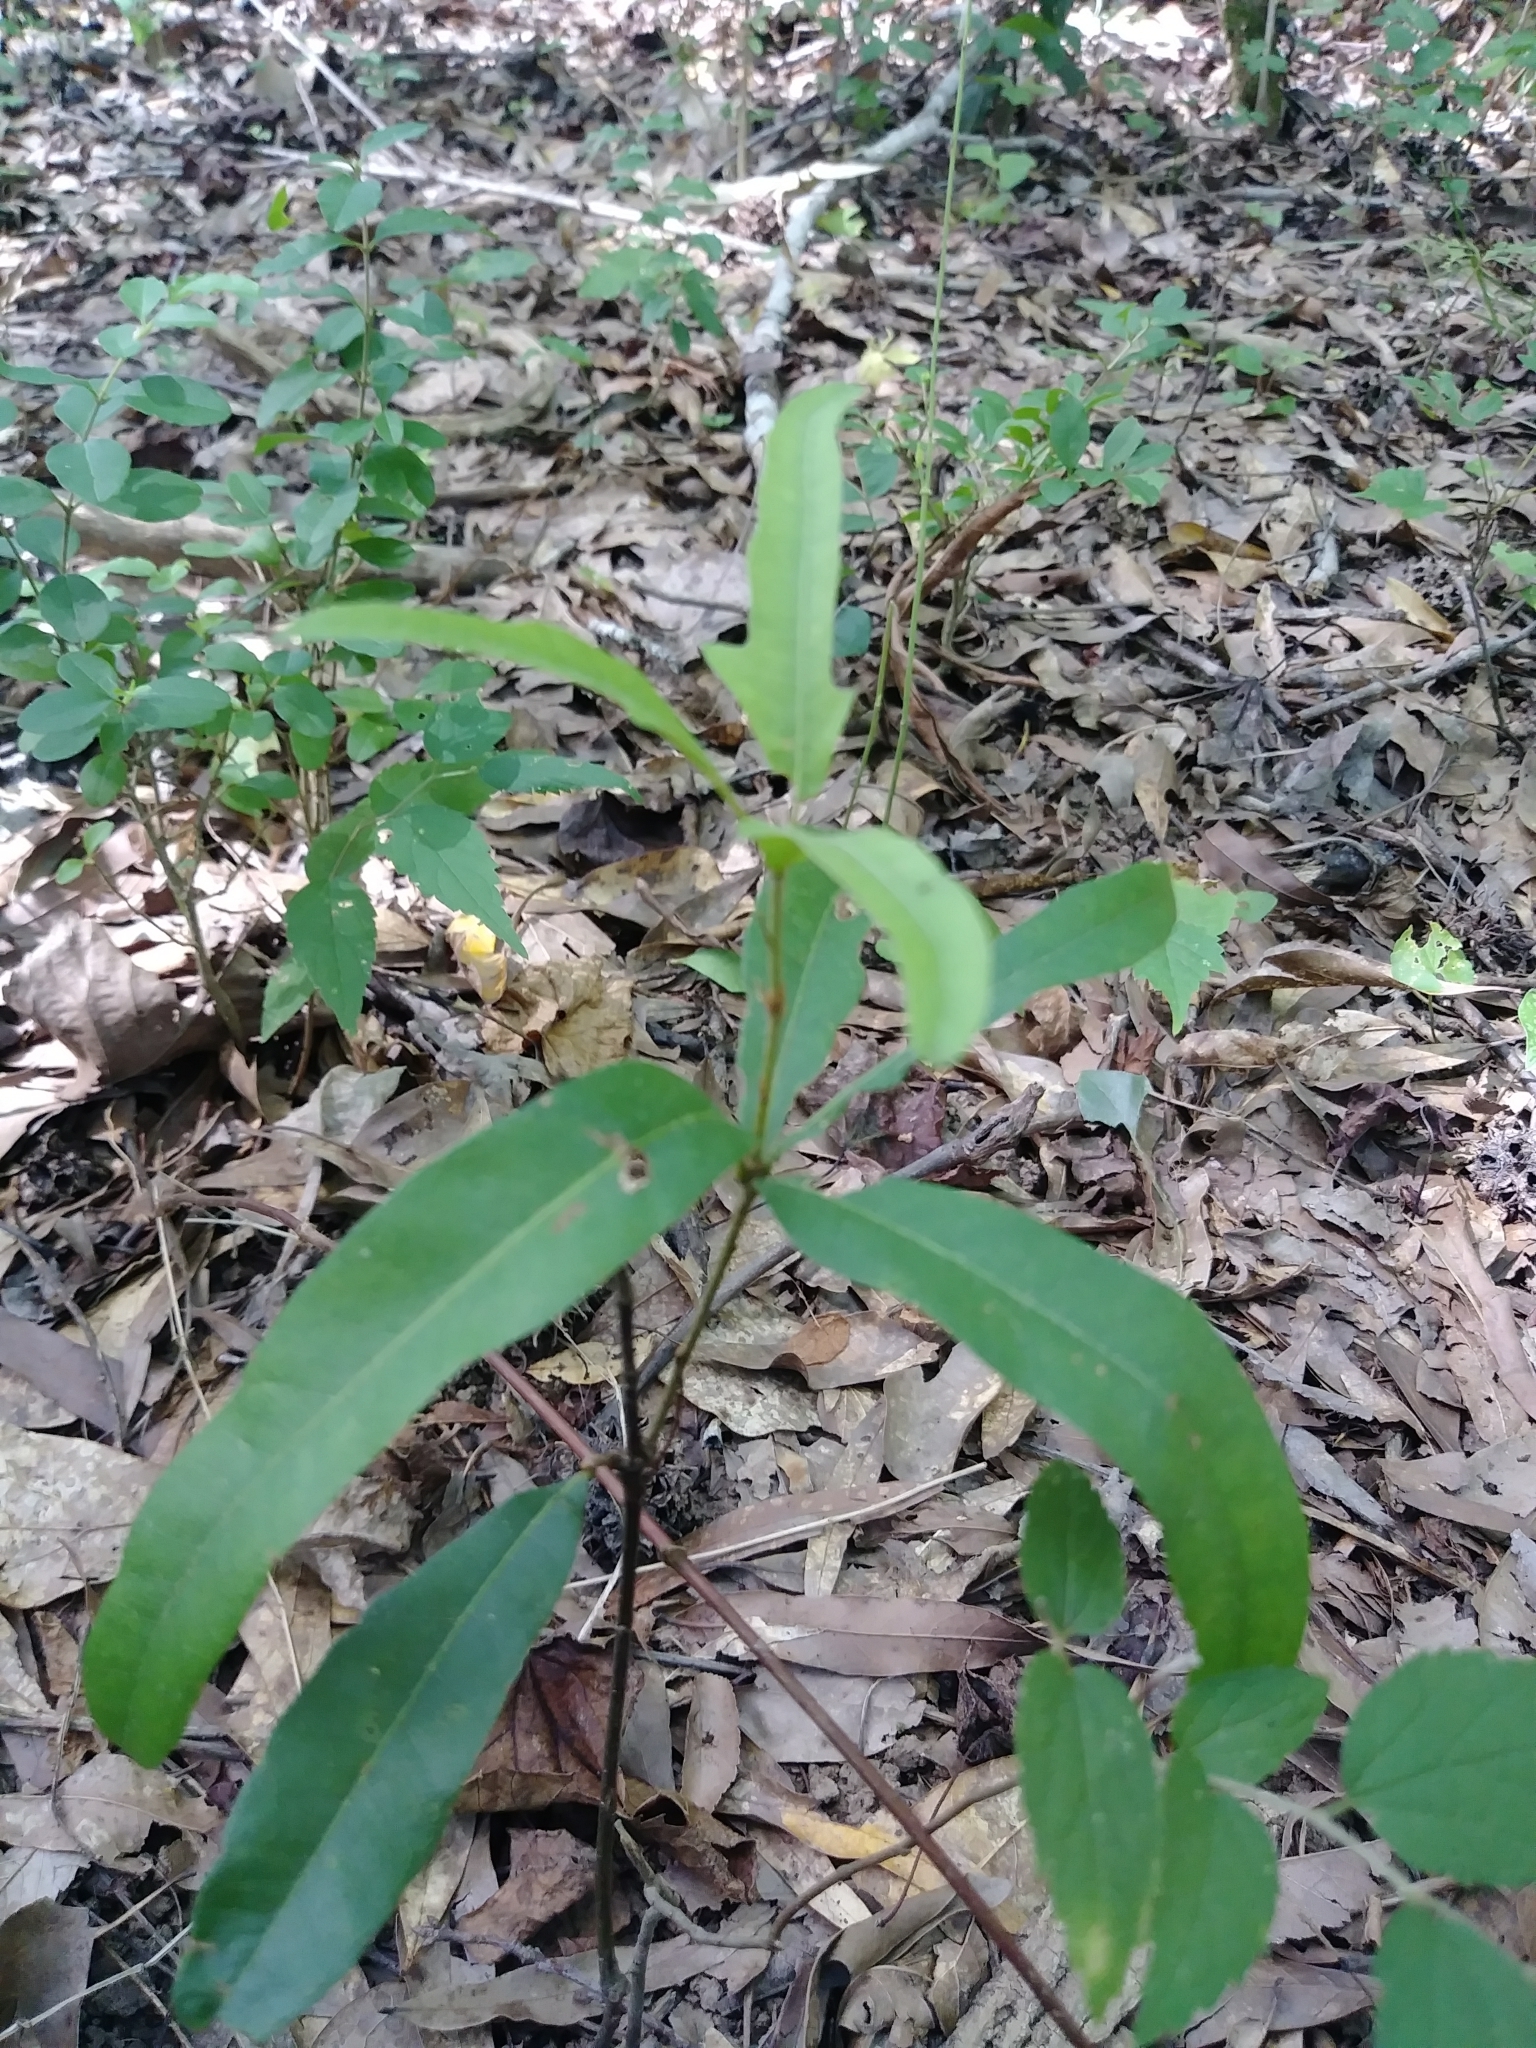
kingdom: Plantae
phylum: Tracheophyta
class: Magnoliopsida
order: Fagales
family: Fagaceae
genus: Quercus
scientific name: Quercus phellos
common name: Willow oak
